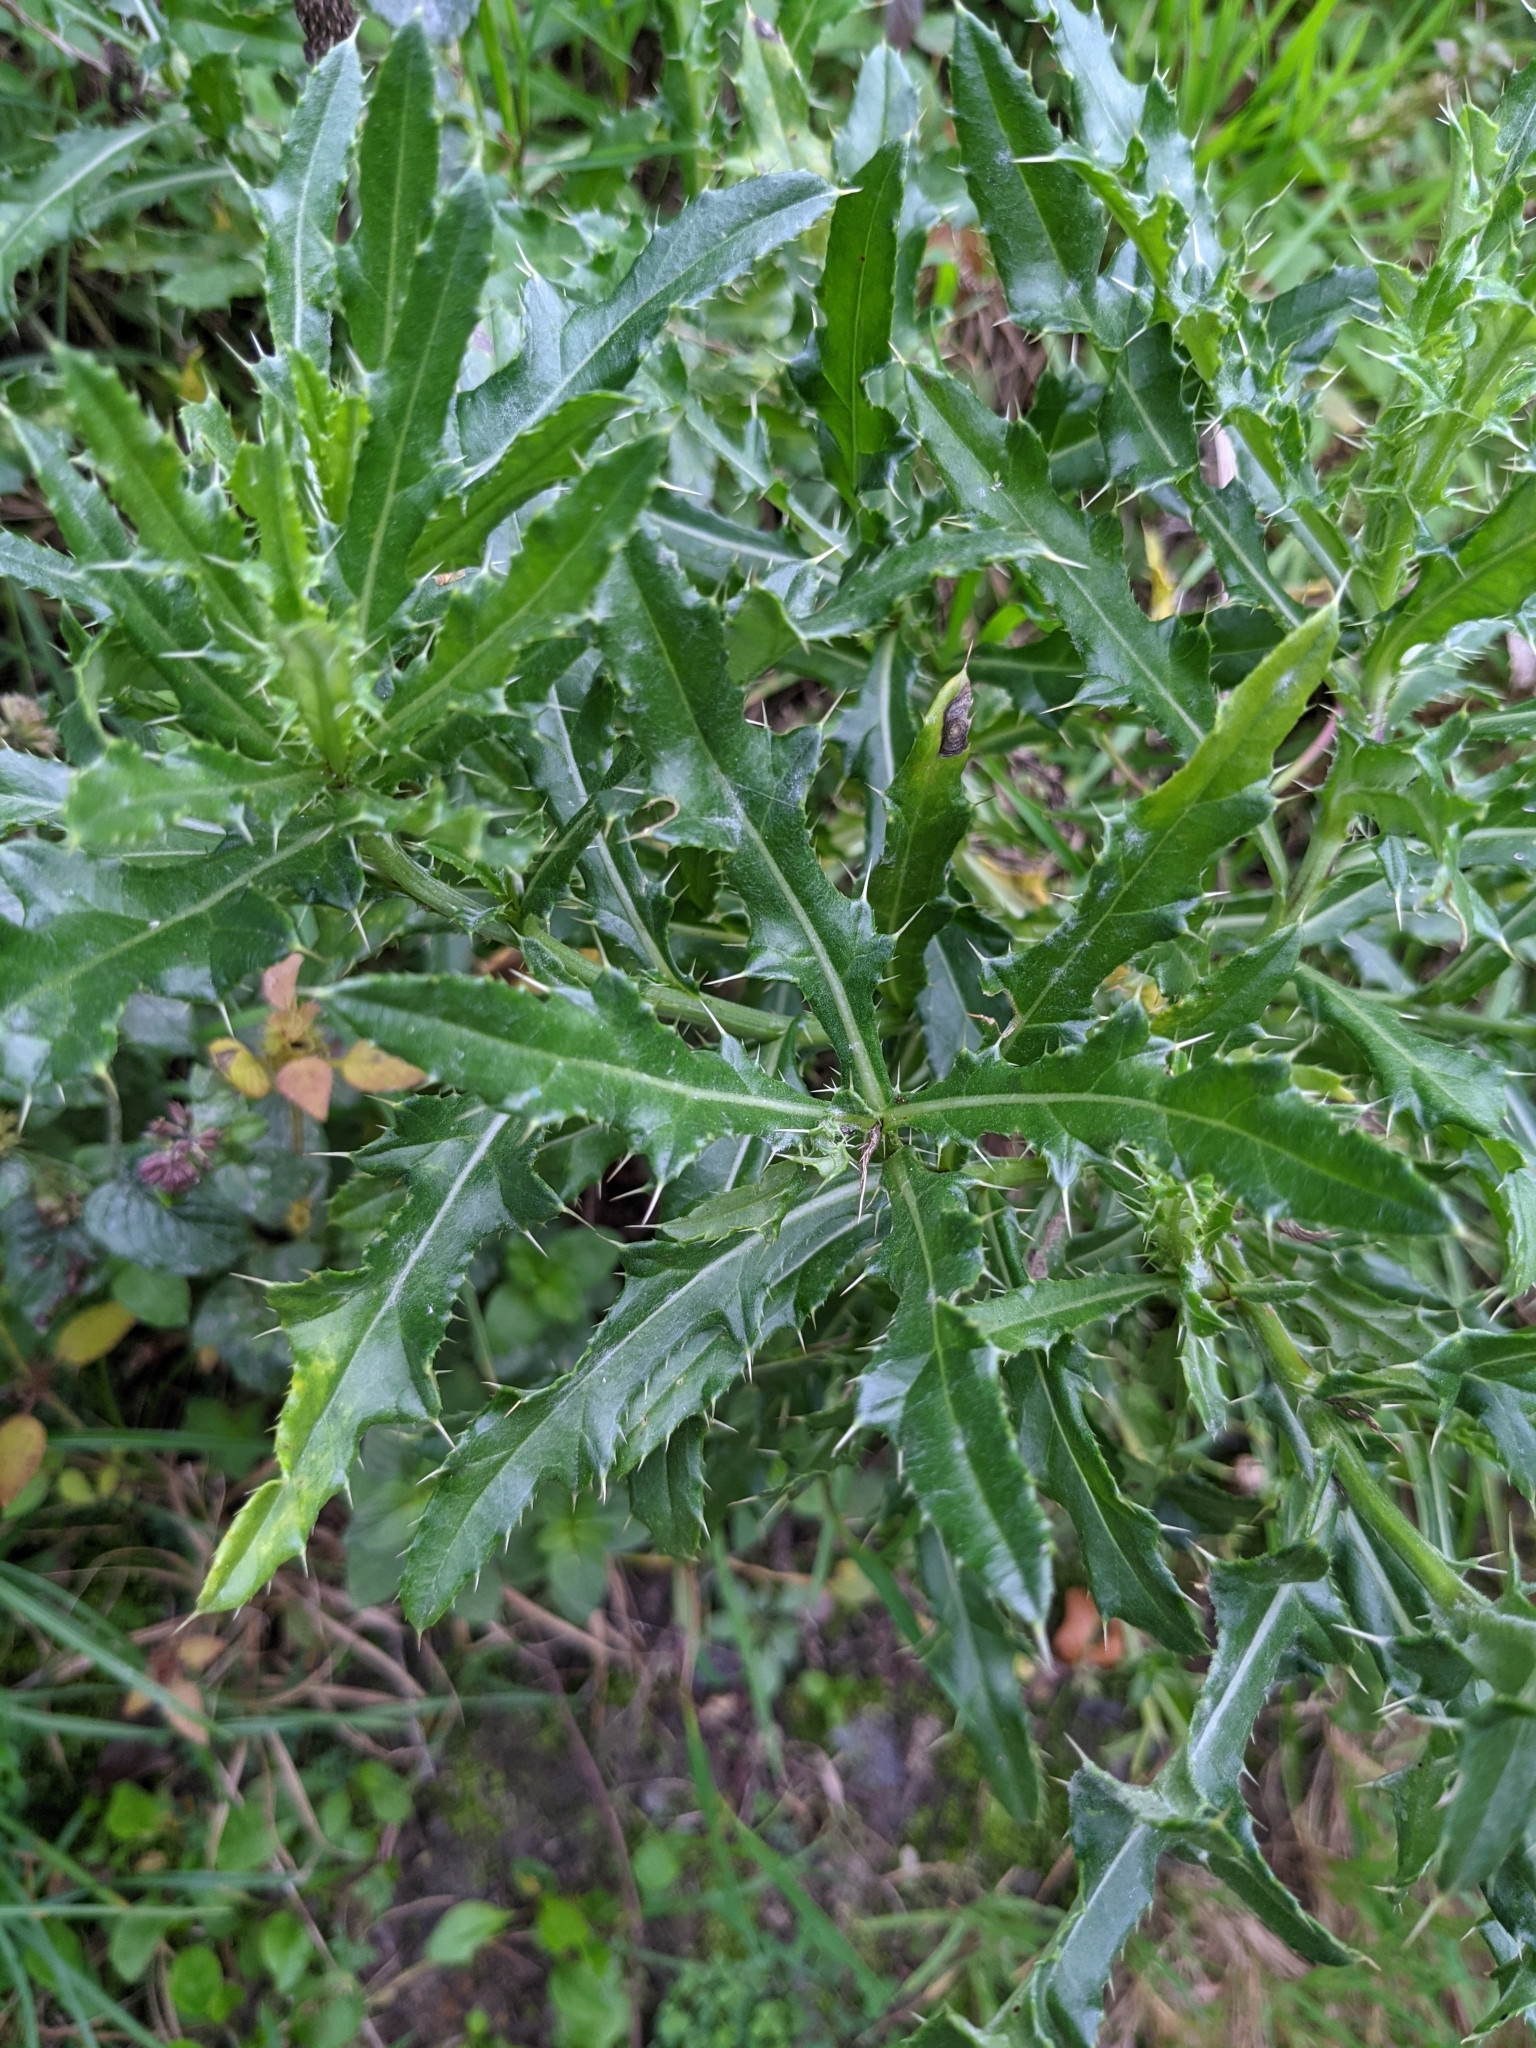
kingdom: Plantae
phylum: Tracheophyta
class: Magnoliopsida
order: Asterales
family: Asteraceae
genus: Cirsium
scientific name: Cirsium arvense
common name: Creeping thistle
